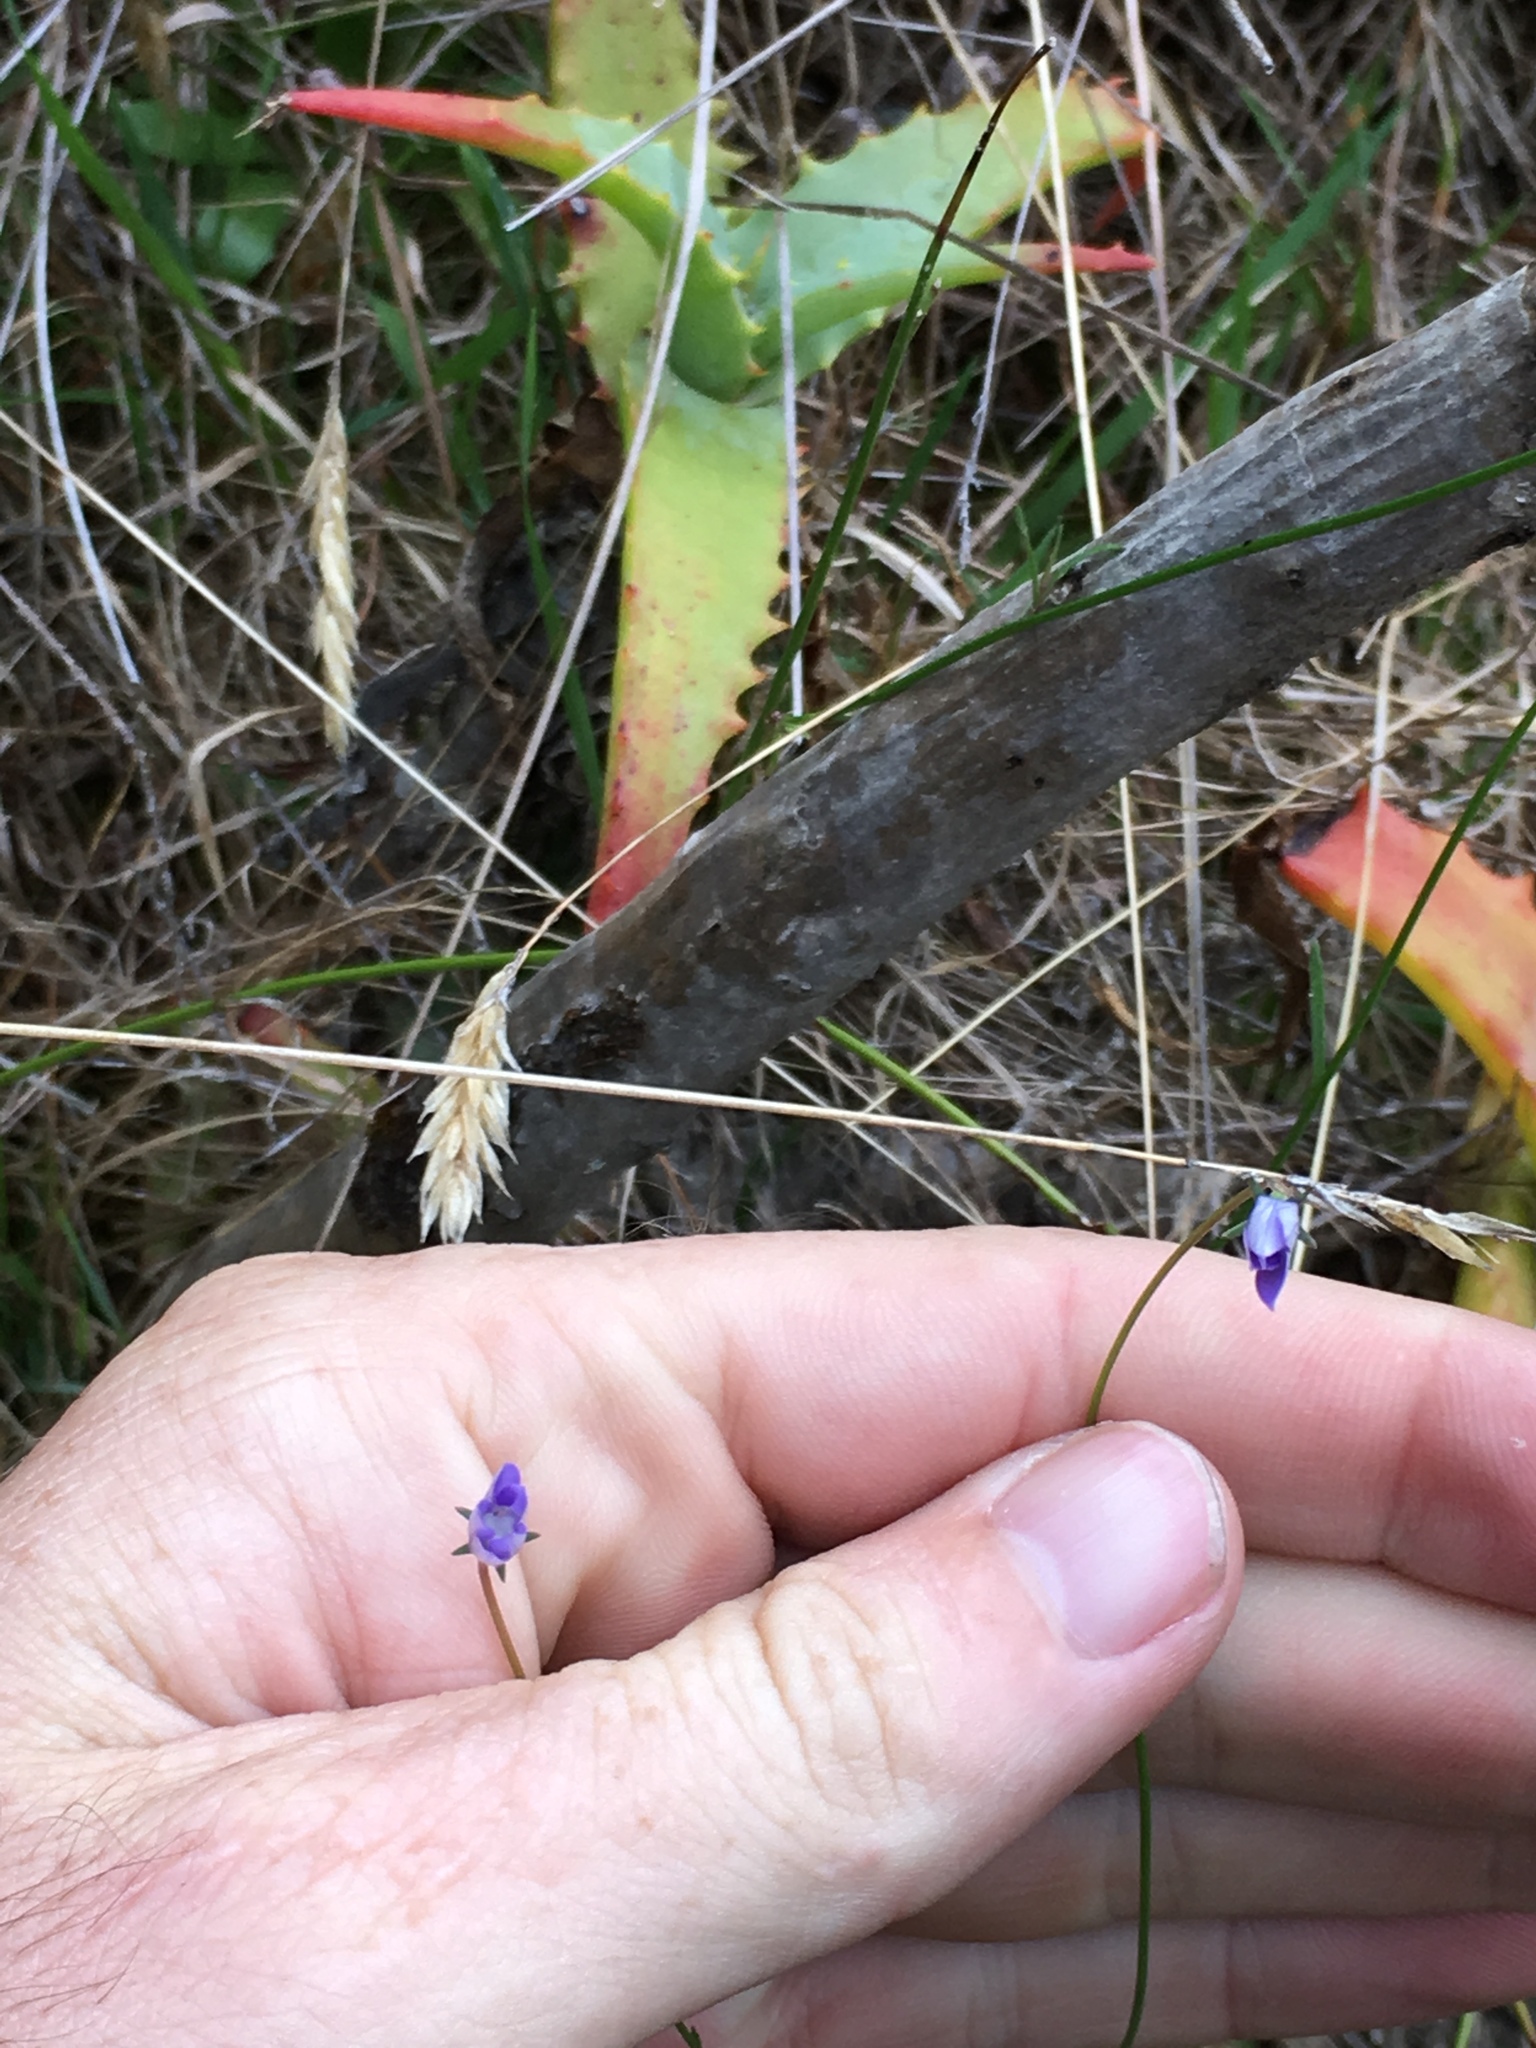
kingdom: Plantae
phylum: Tracheophyta
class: Magnoliopsida
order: Asterales
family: Campanulaceae
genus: Wahlenbergia
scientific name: Wahlenbergia violacea
